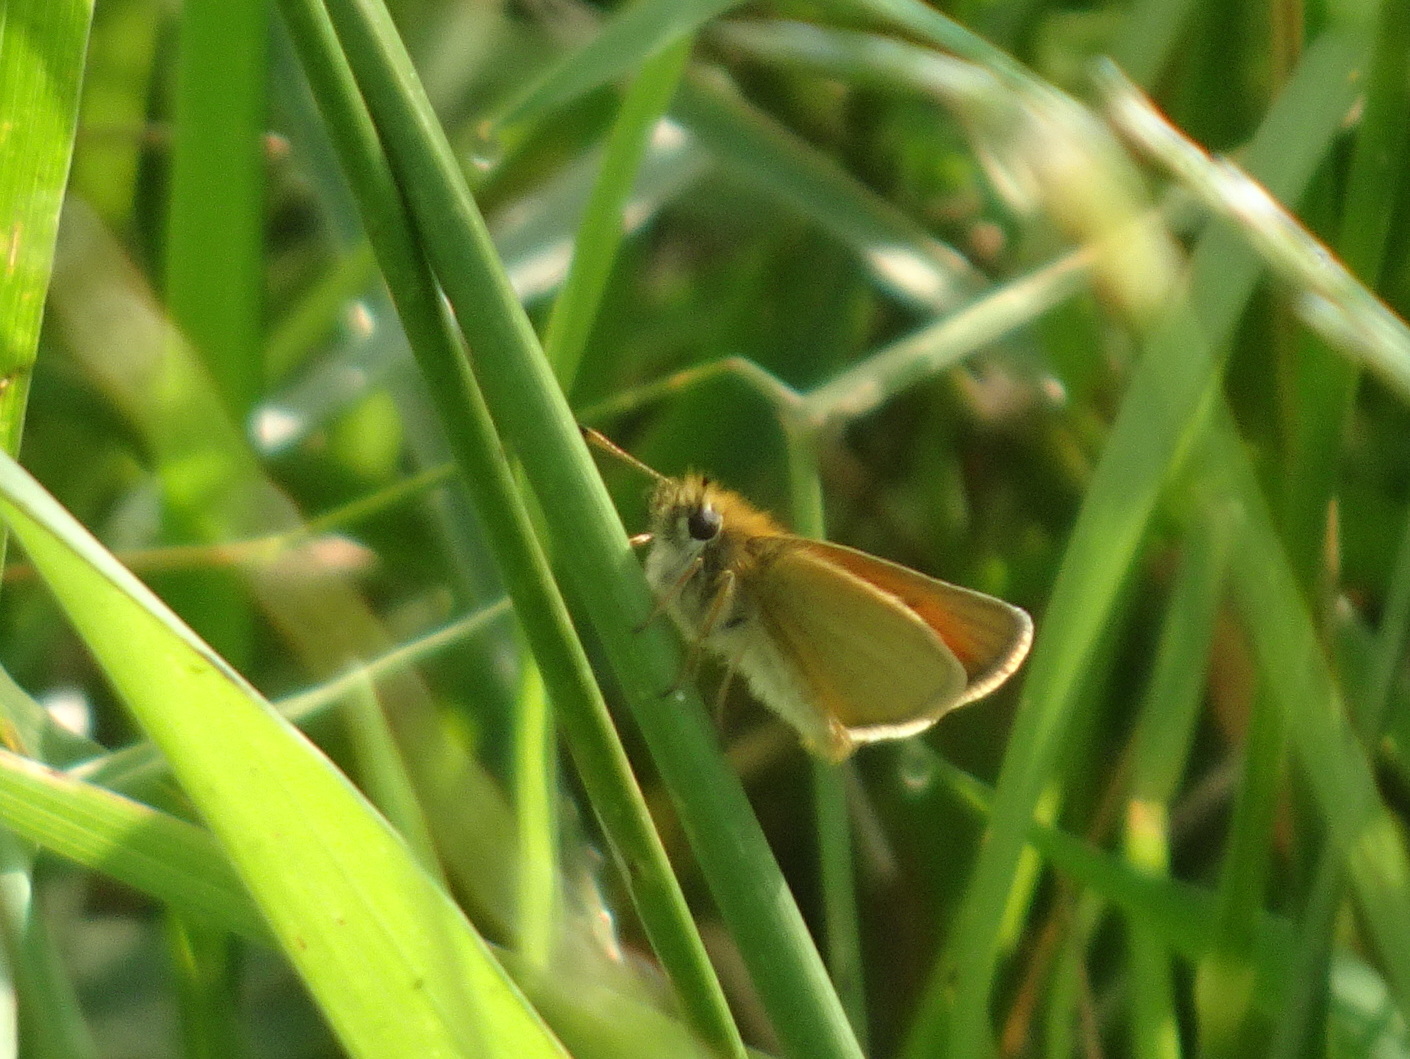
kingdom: Animalia
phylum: Arthropoda
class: Insecta
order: Lepidoptera
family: Hesperiidae
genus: Thymelicus
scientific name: Thymelicus lineola
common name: Essex skipper
